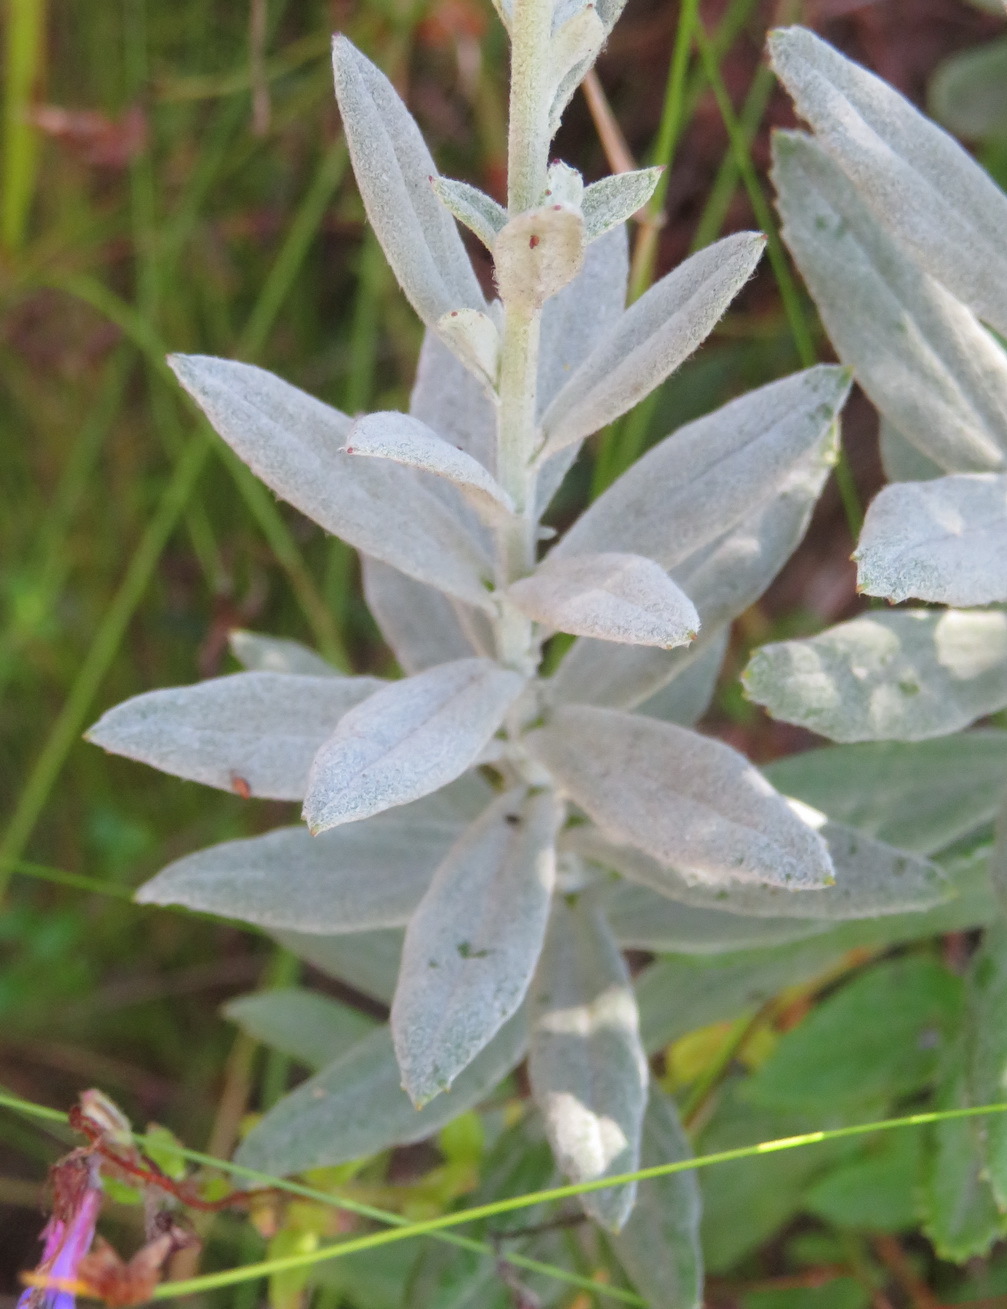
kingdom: Plantae
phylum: Tracheophyta
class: Magnoliopsida
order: Asterales
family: Asteraceae
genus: Senecio
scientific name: Senecio lineatus
